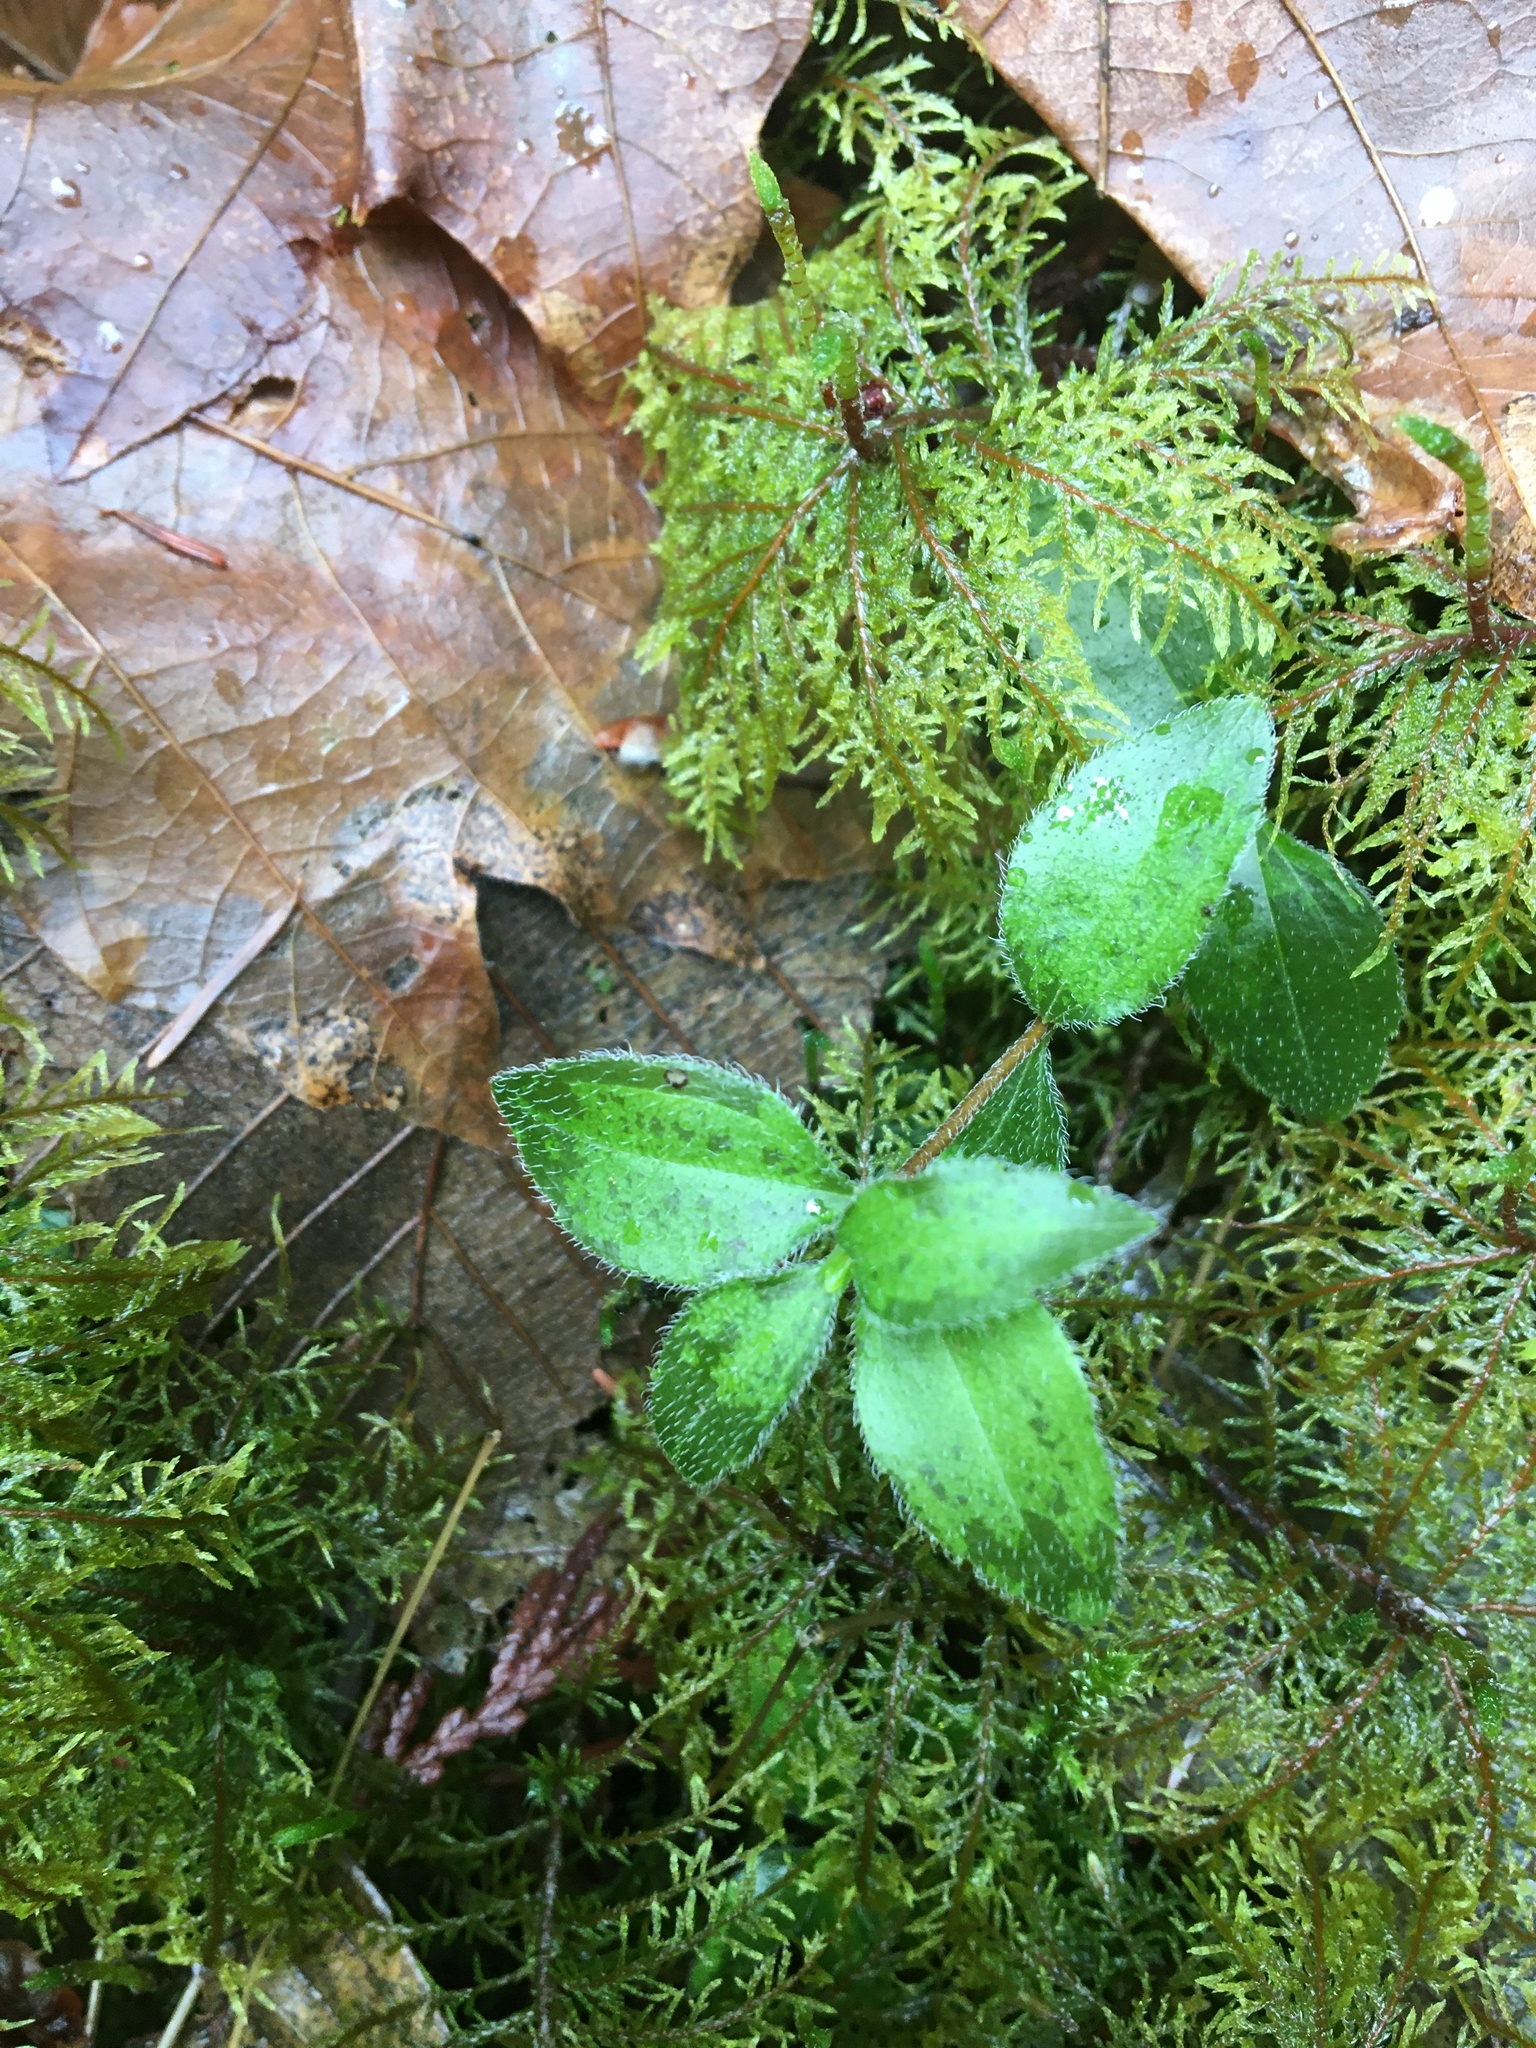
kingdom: Plantae
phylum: Tracheophyta
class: Magnoliopsida
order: Cornales
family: Hydrangeaceae
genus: Whipplea
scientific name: Whipplea modesta
